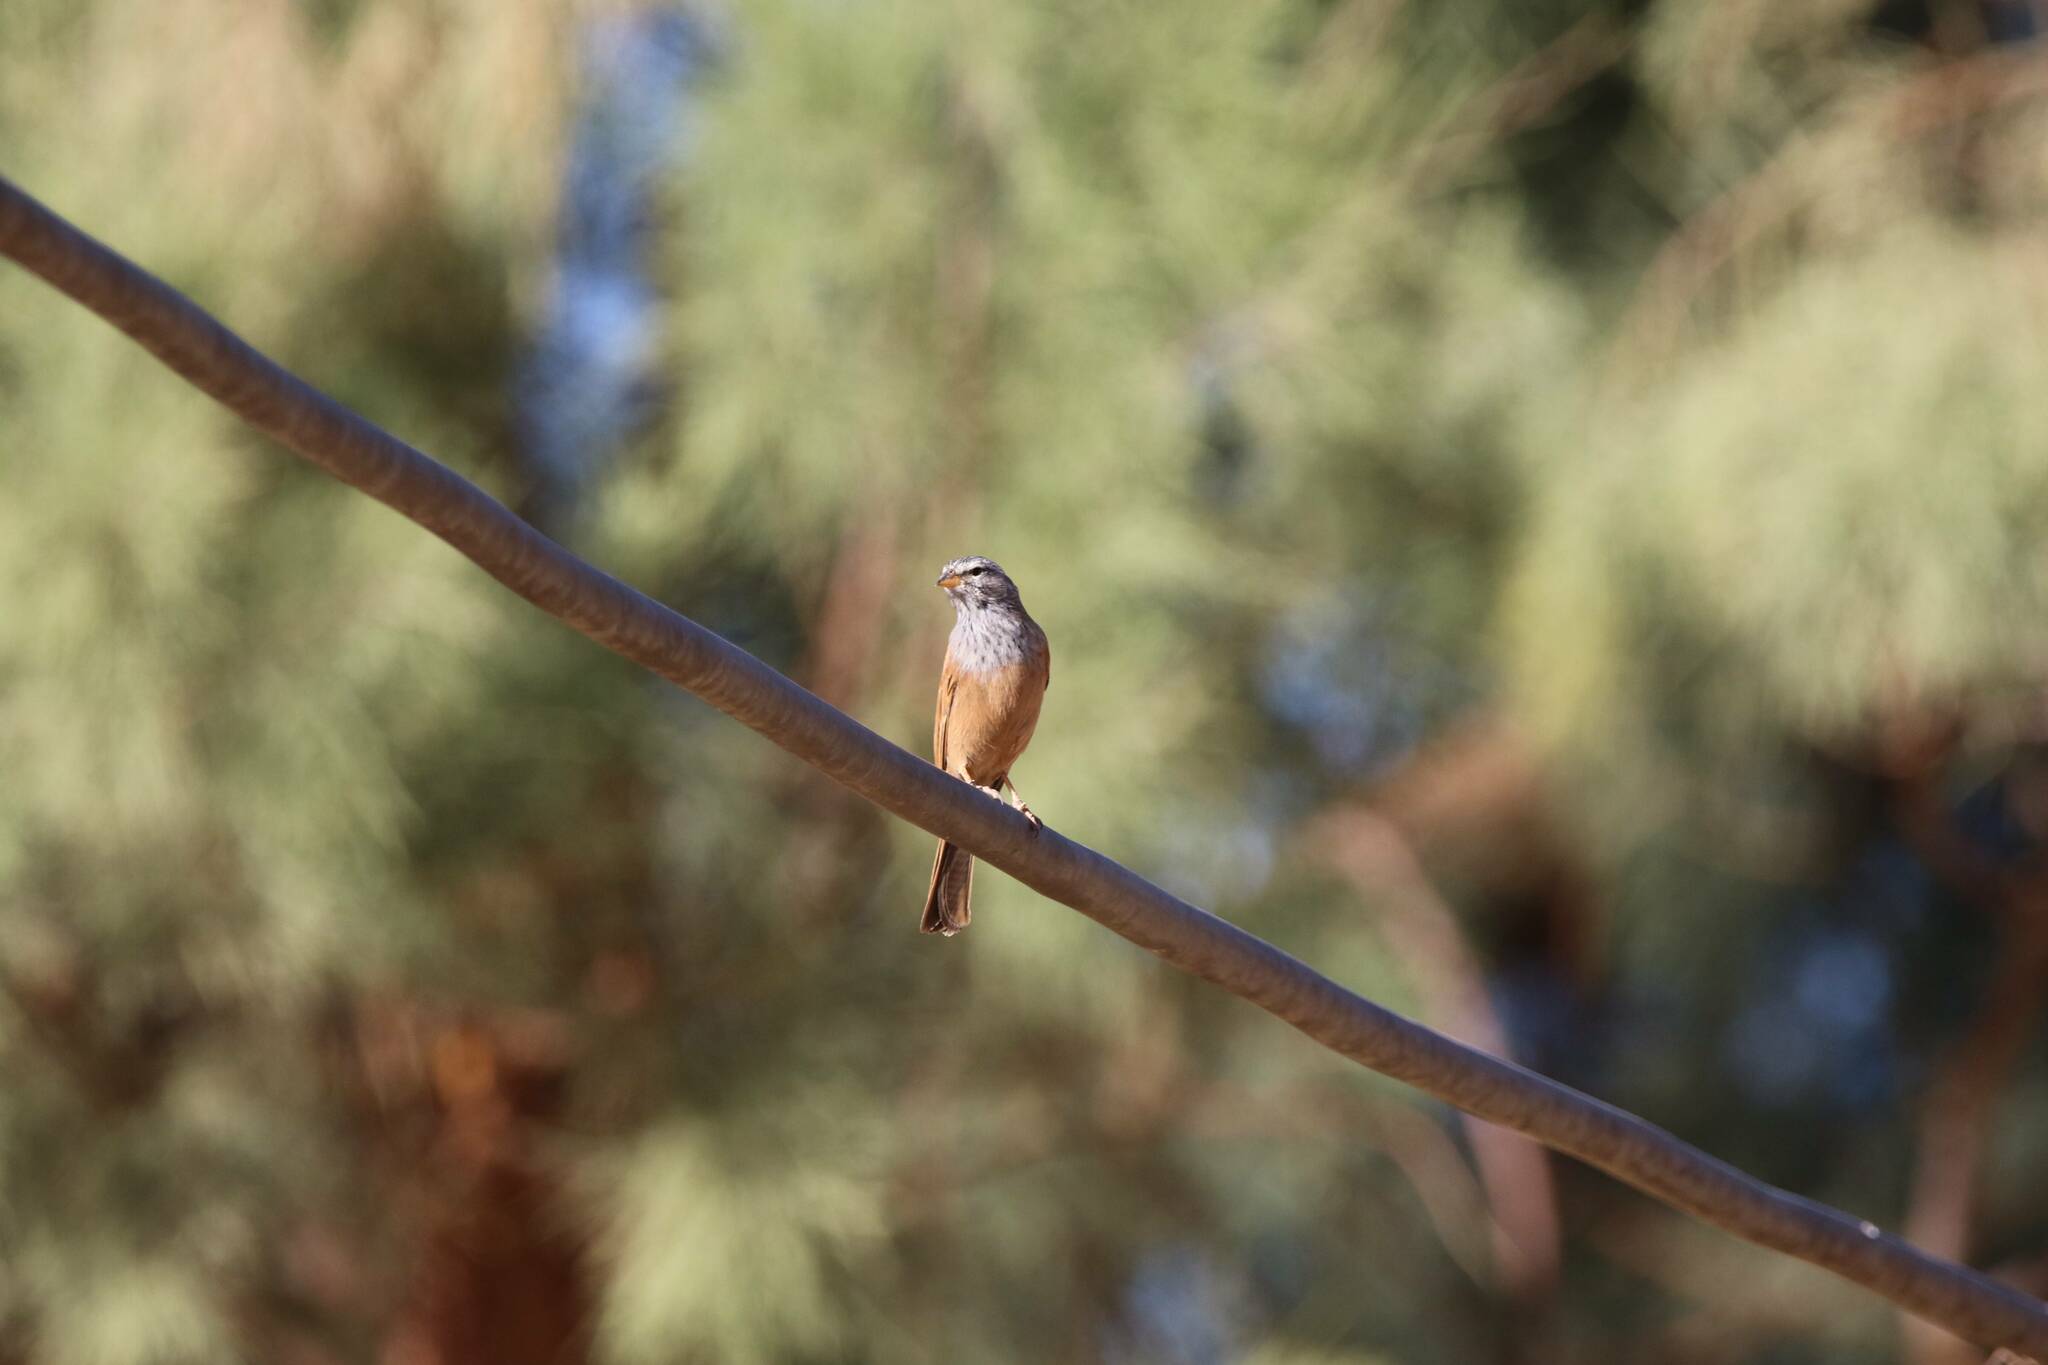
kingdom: Animalia
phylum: Chordata
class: Aves
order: Passeriformes
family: Emberizidae
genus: Emberiza
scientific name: Emberiza sahari
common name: House bunting
